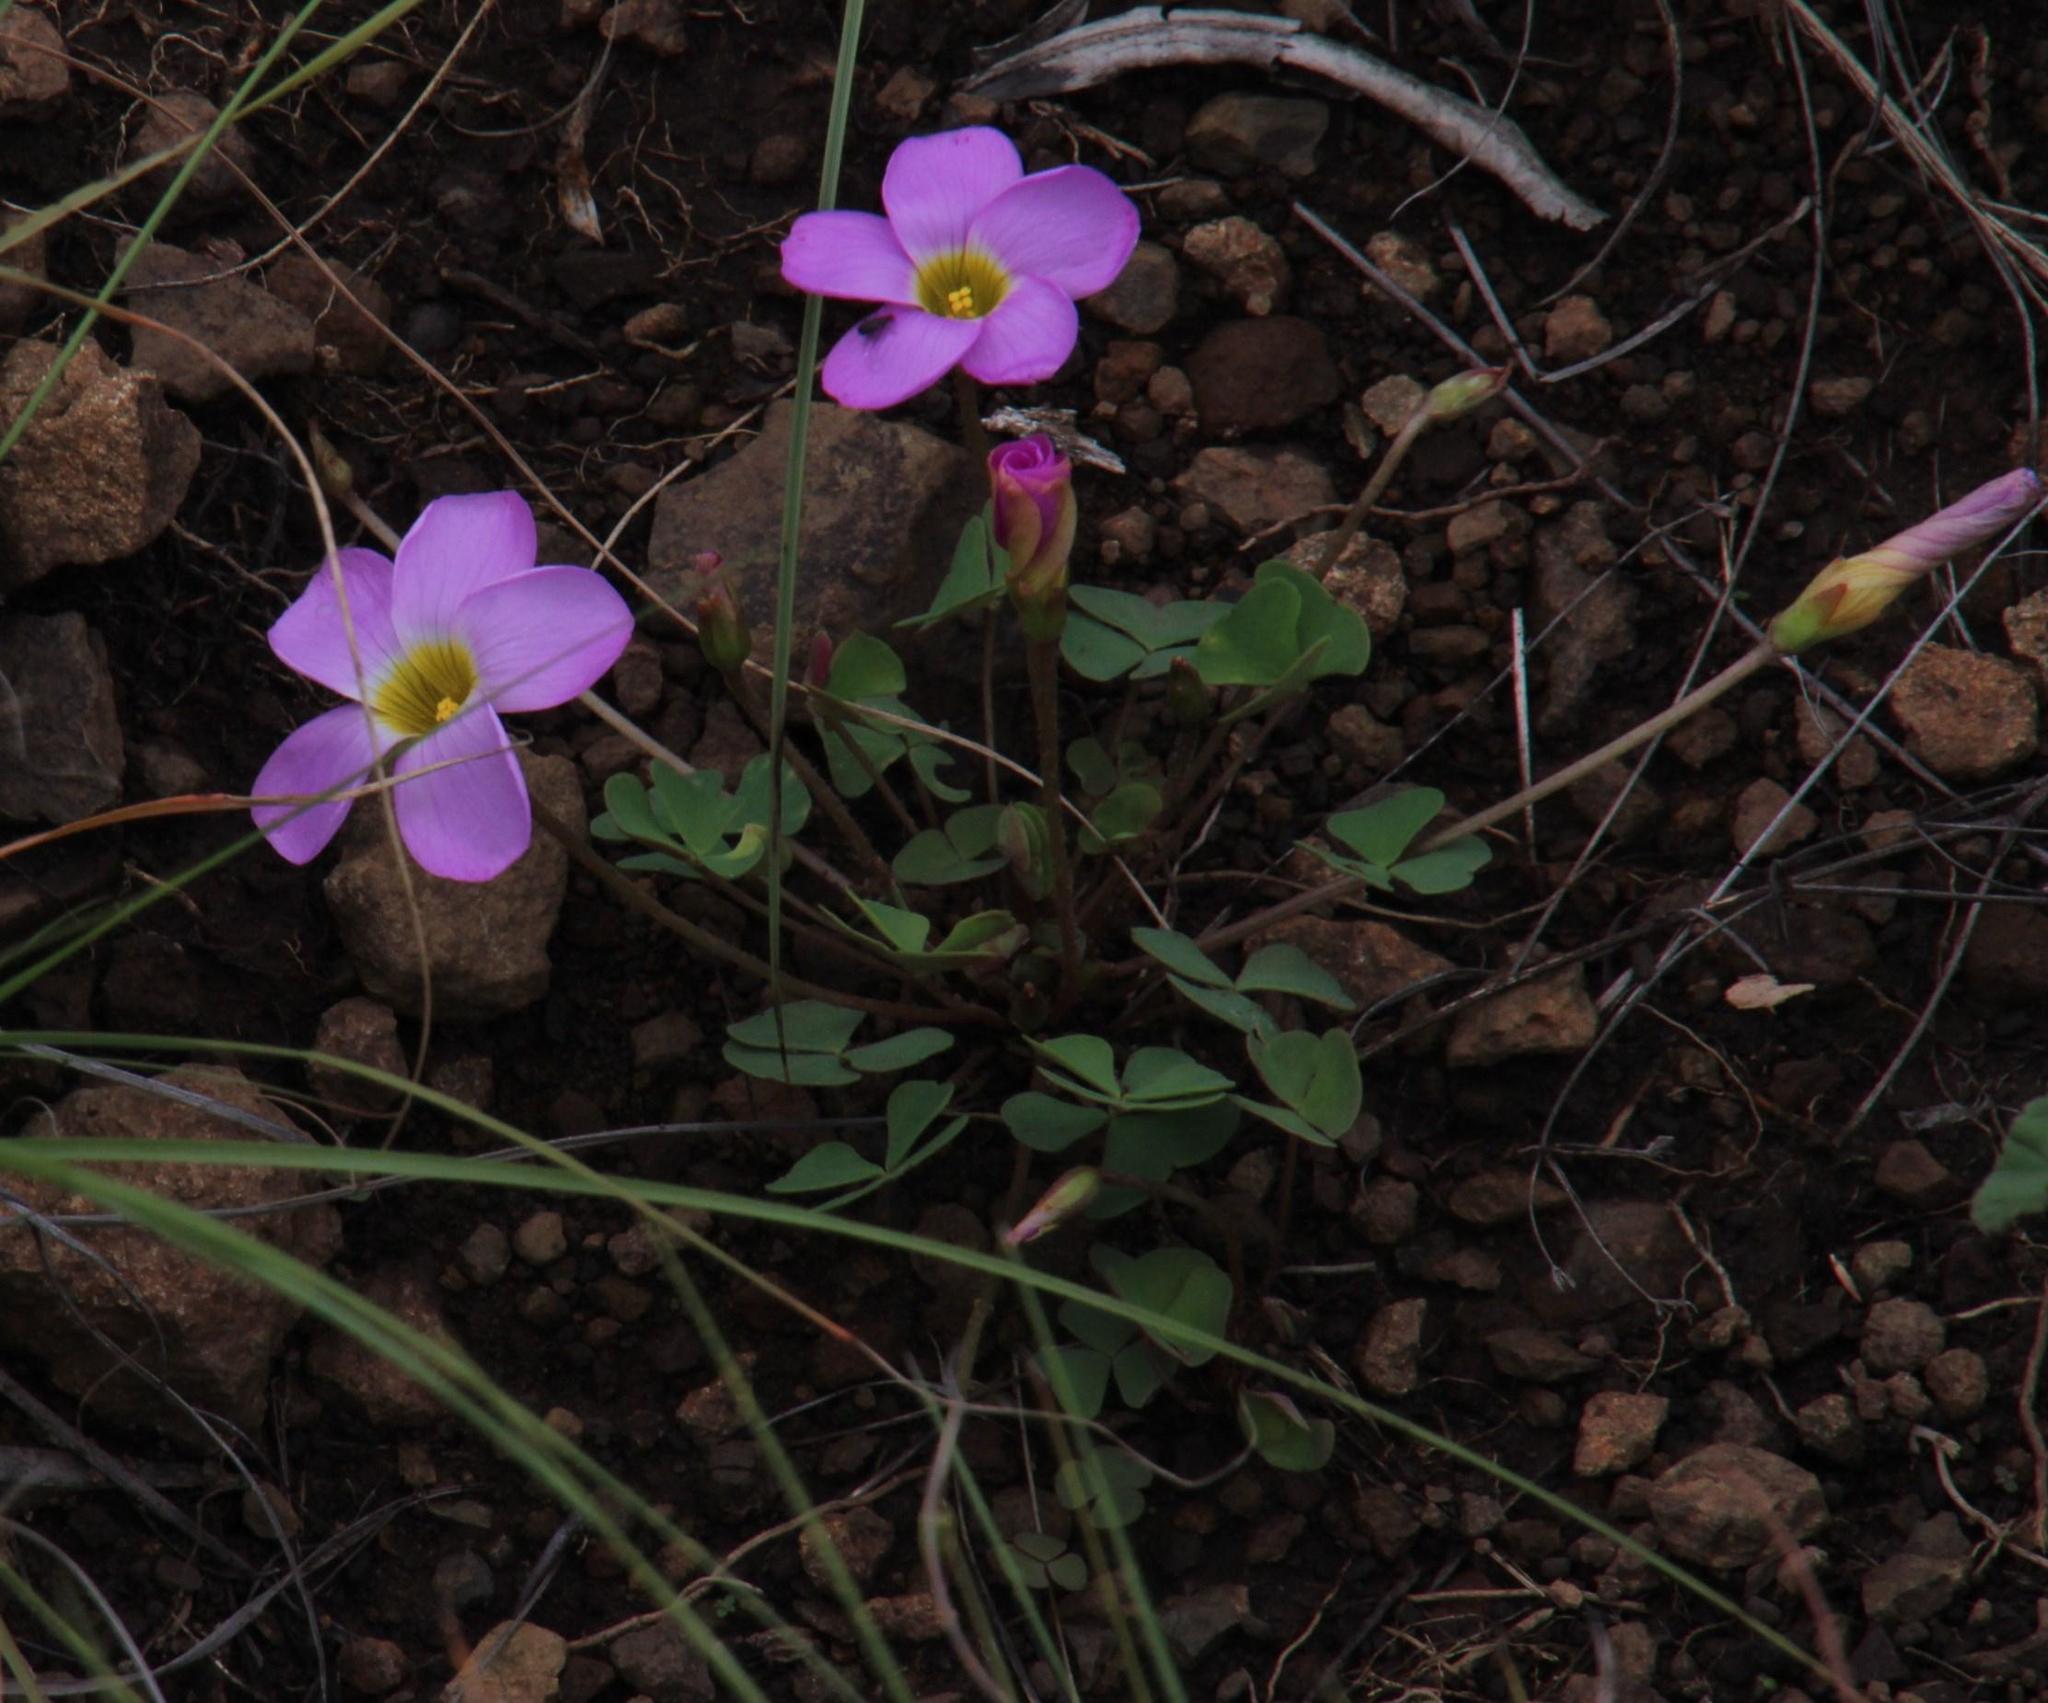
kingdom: Plantae
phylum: Tracheophyta
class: Magnoliopsida
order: Oxalidales
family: Oxalidaceae
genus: Oxalis
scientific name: Oxalis obliquifolia
